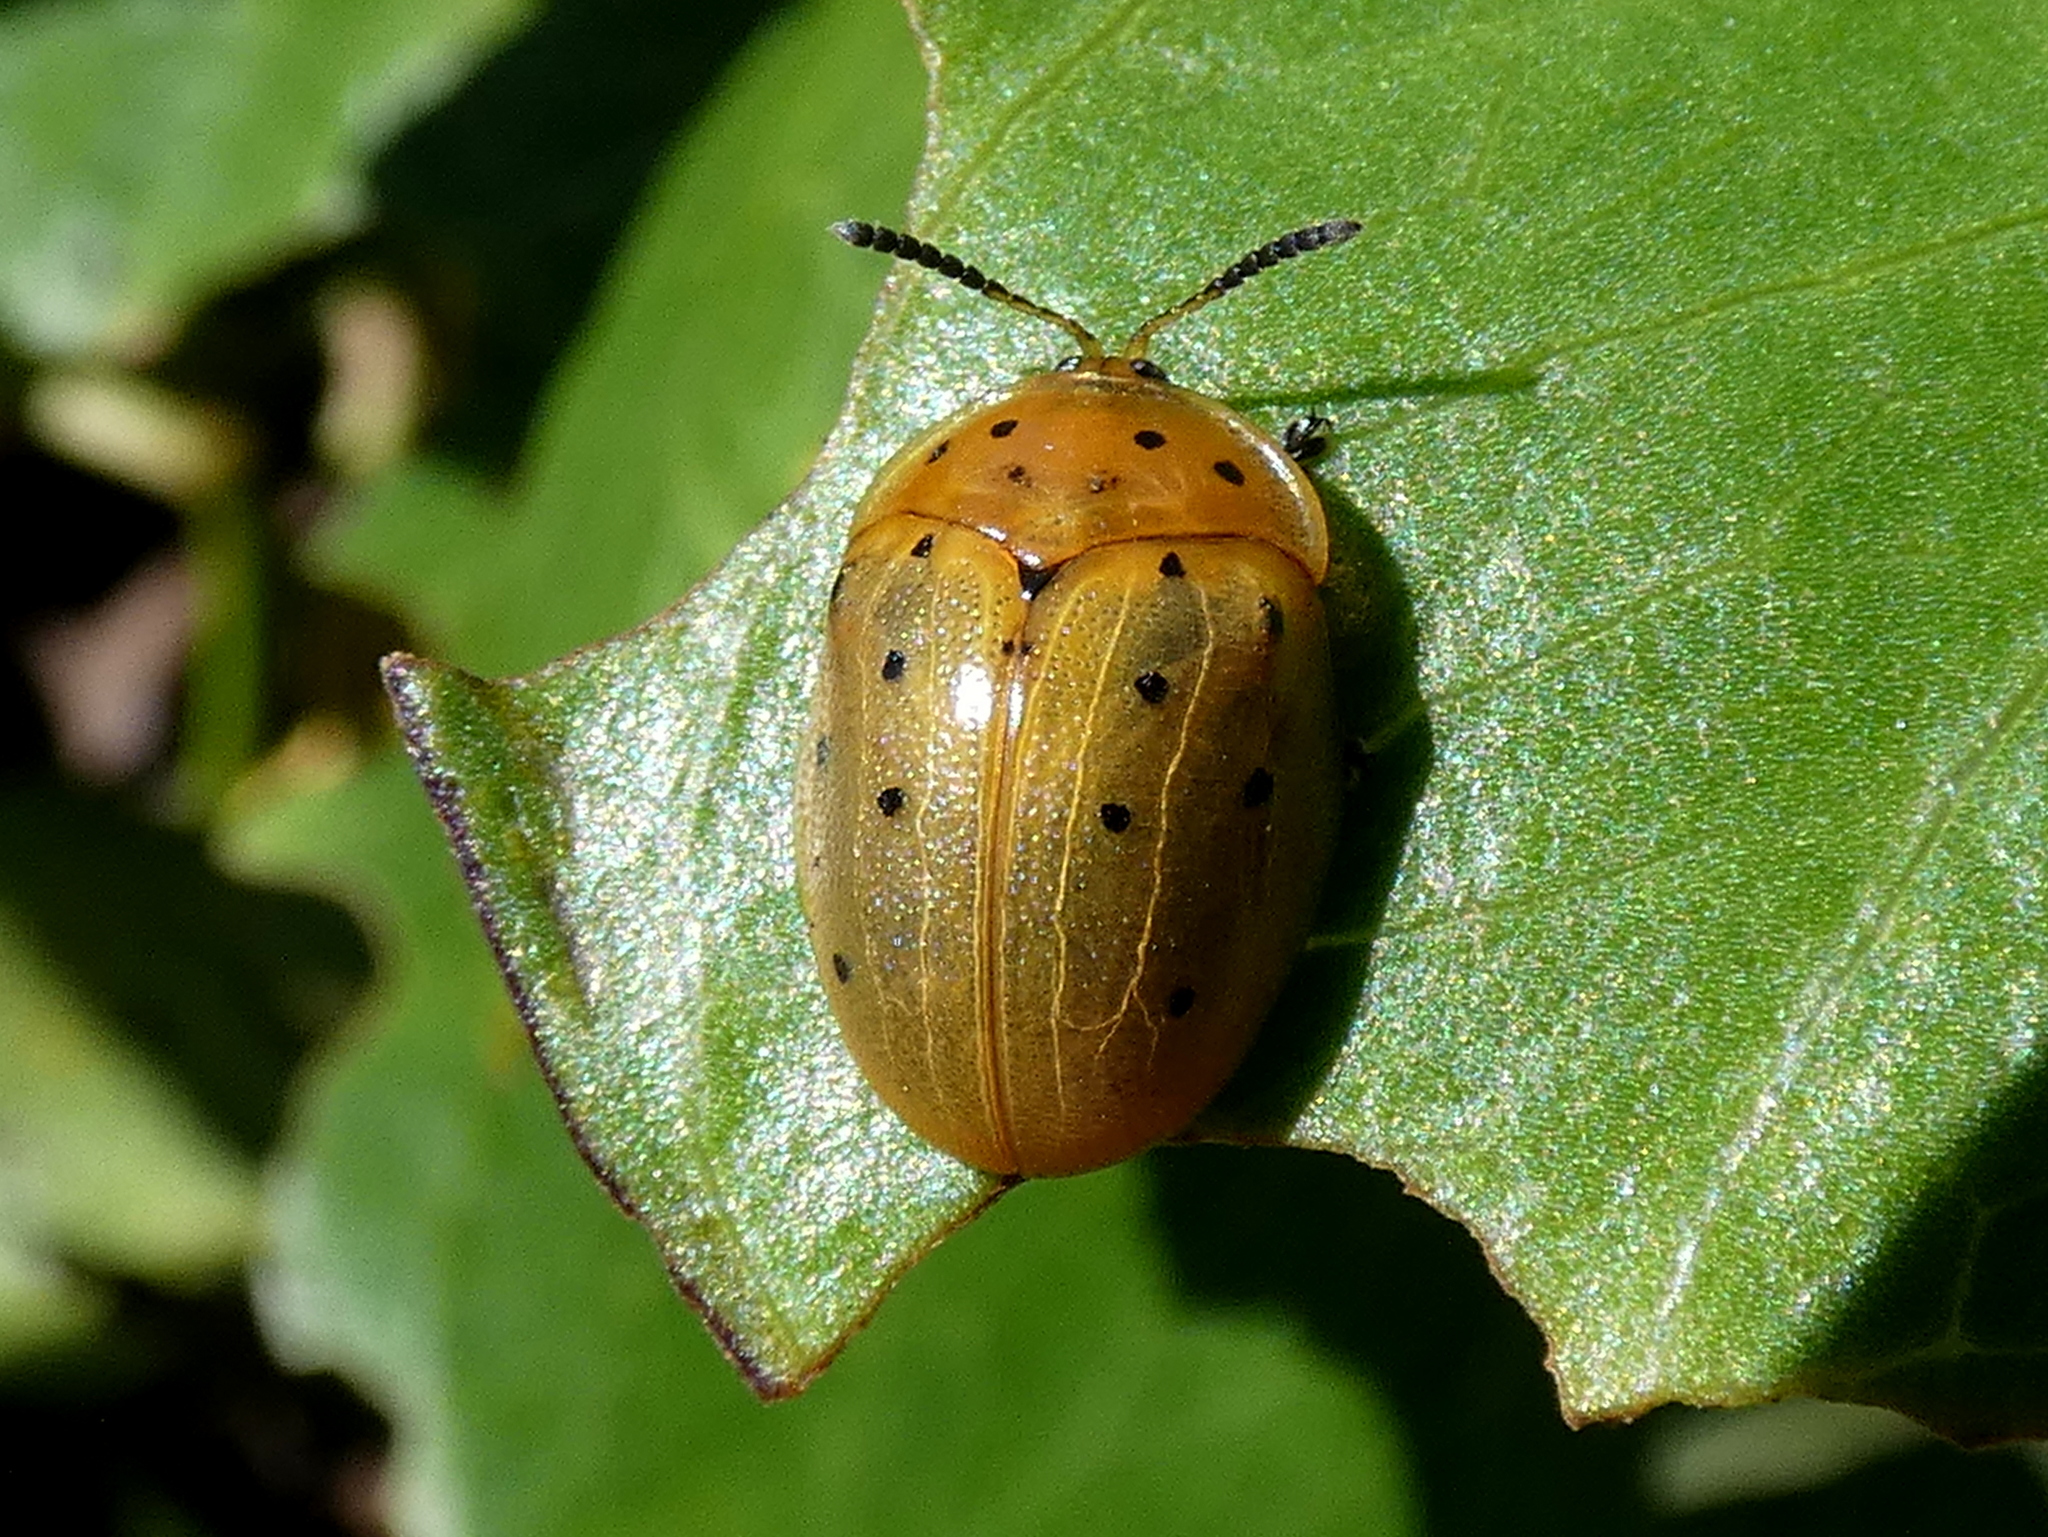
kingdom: Animalia
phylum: Arthropoda
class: Insecta
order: Coleoptera
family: Chrysomelidae
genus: Chelymorpha
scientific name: Chelymorpha cassidea
